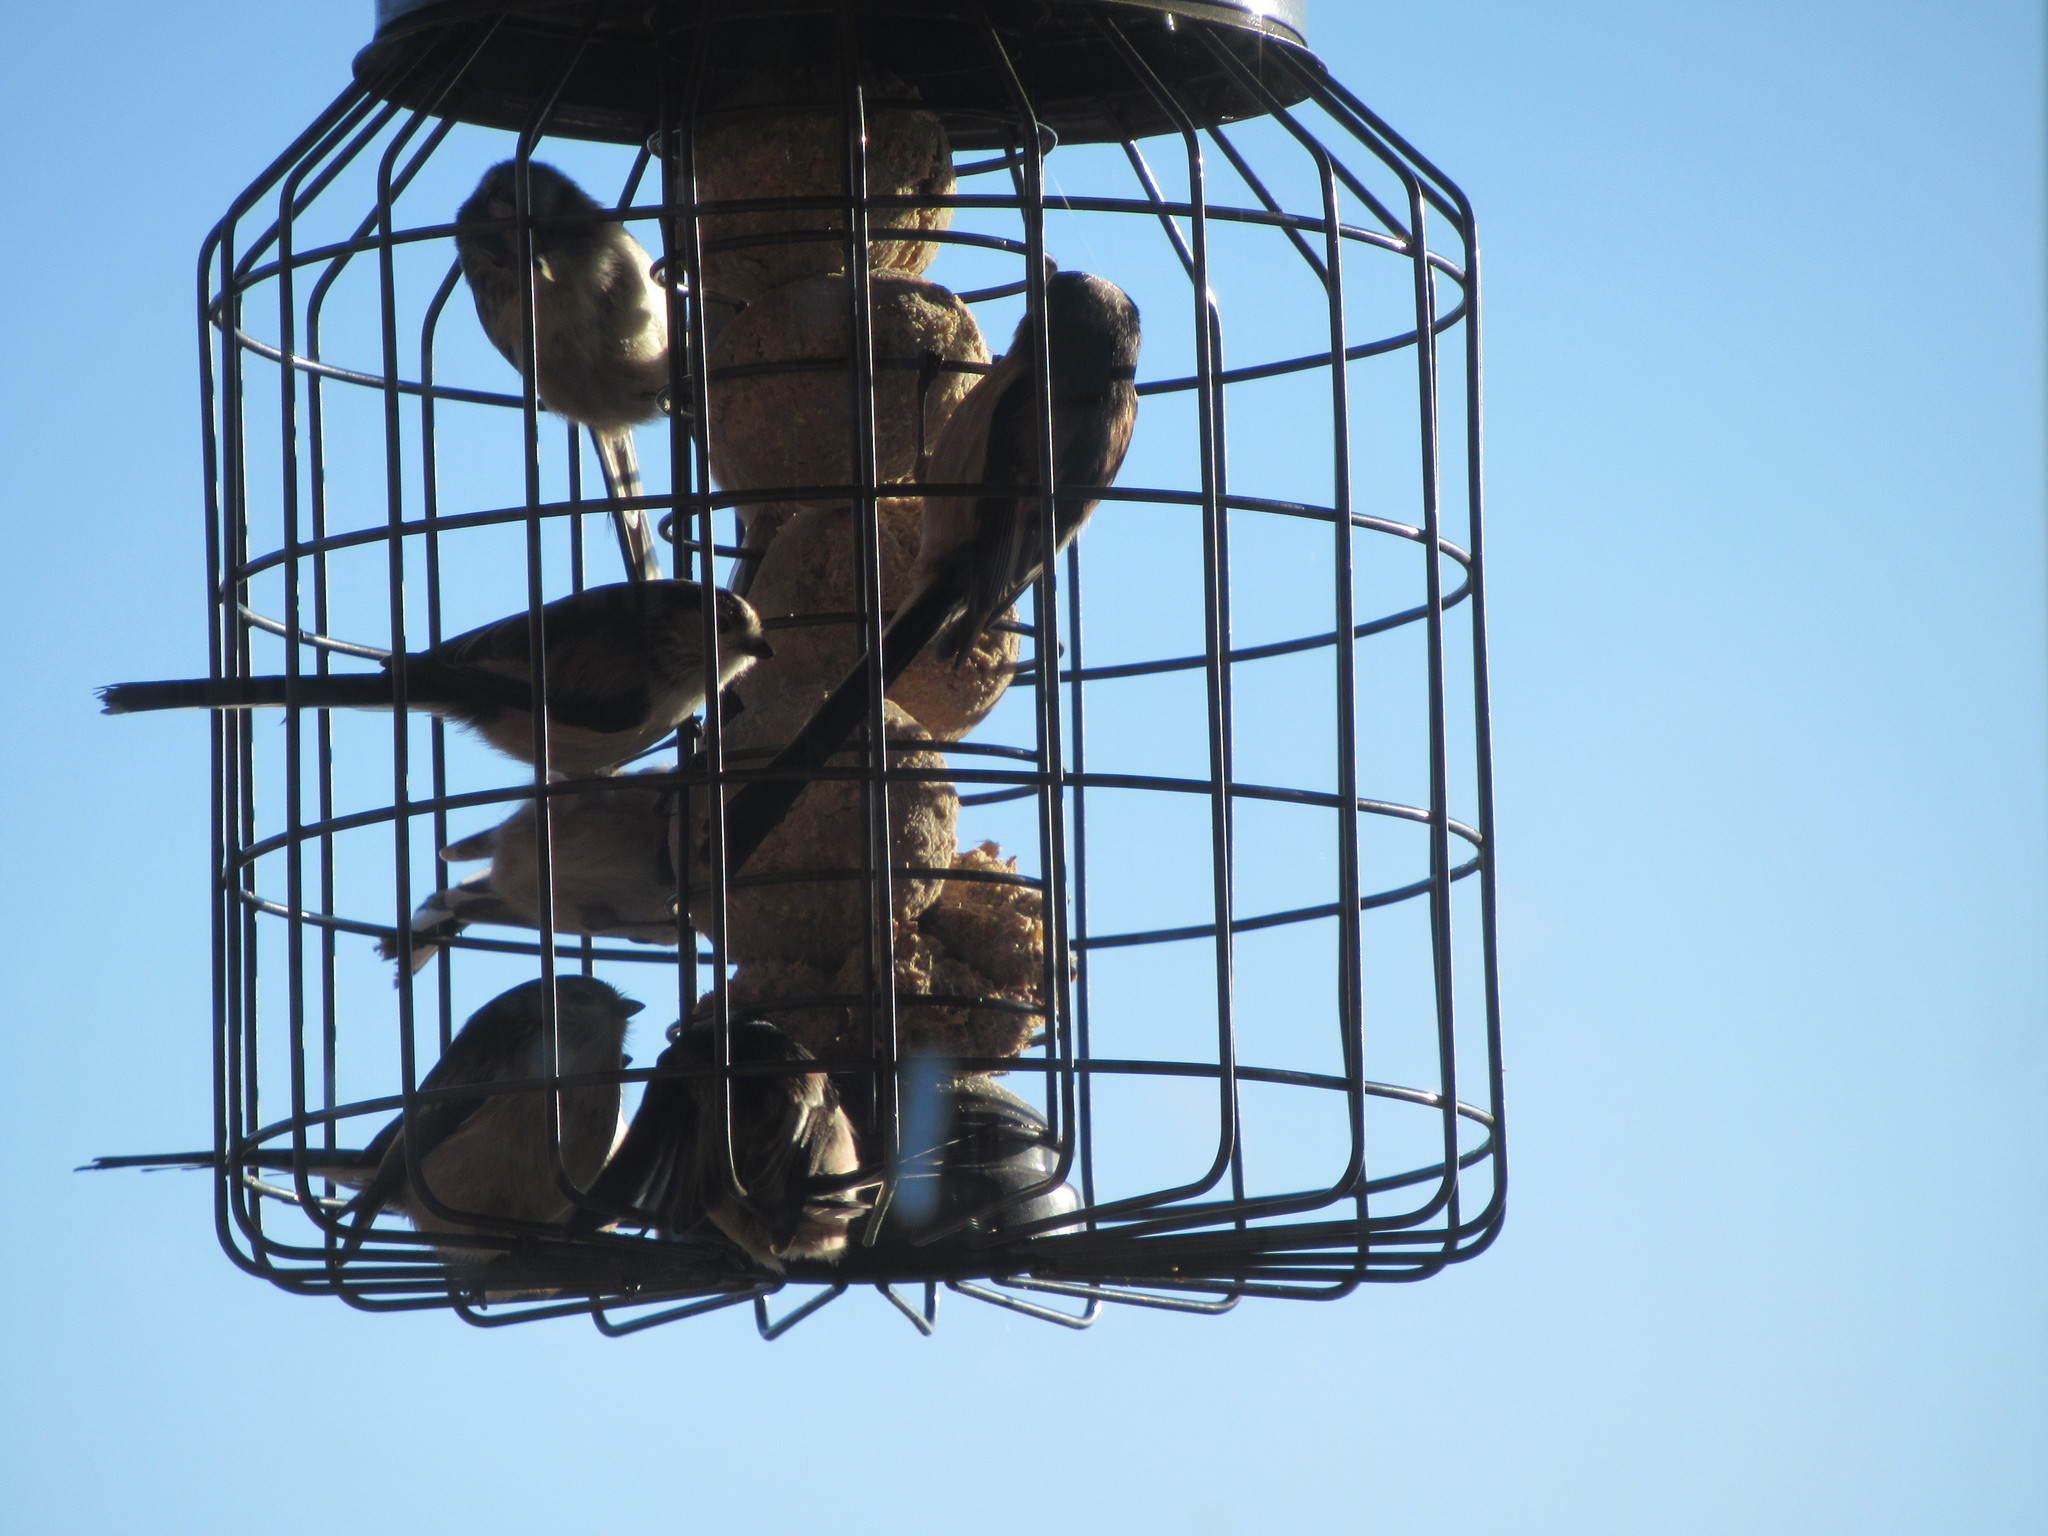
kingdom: Animalia
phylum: Chordata
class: Aves
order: Passeriformes
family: Aegithalidae
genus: Aegithalos
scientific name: Aegithalos caudatus
